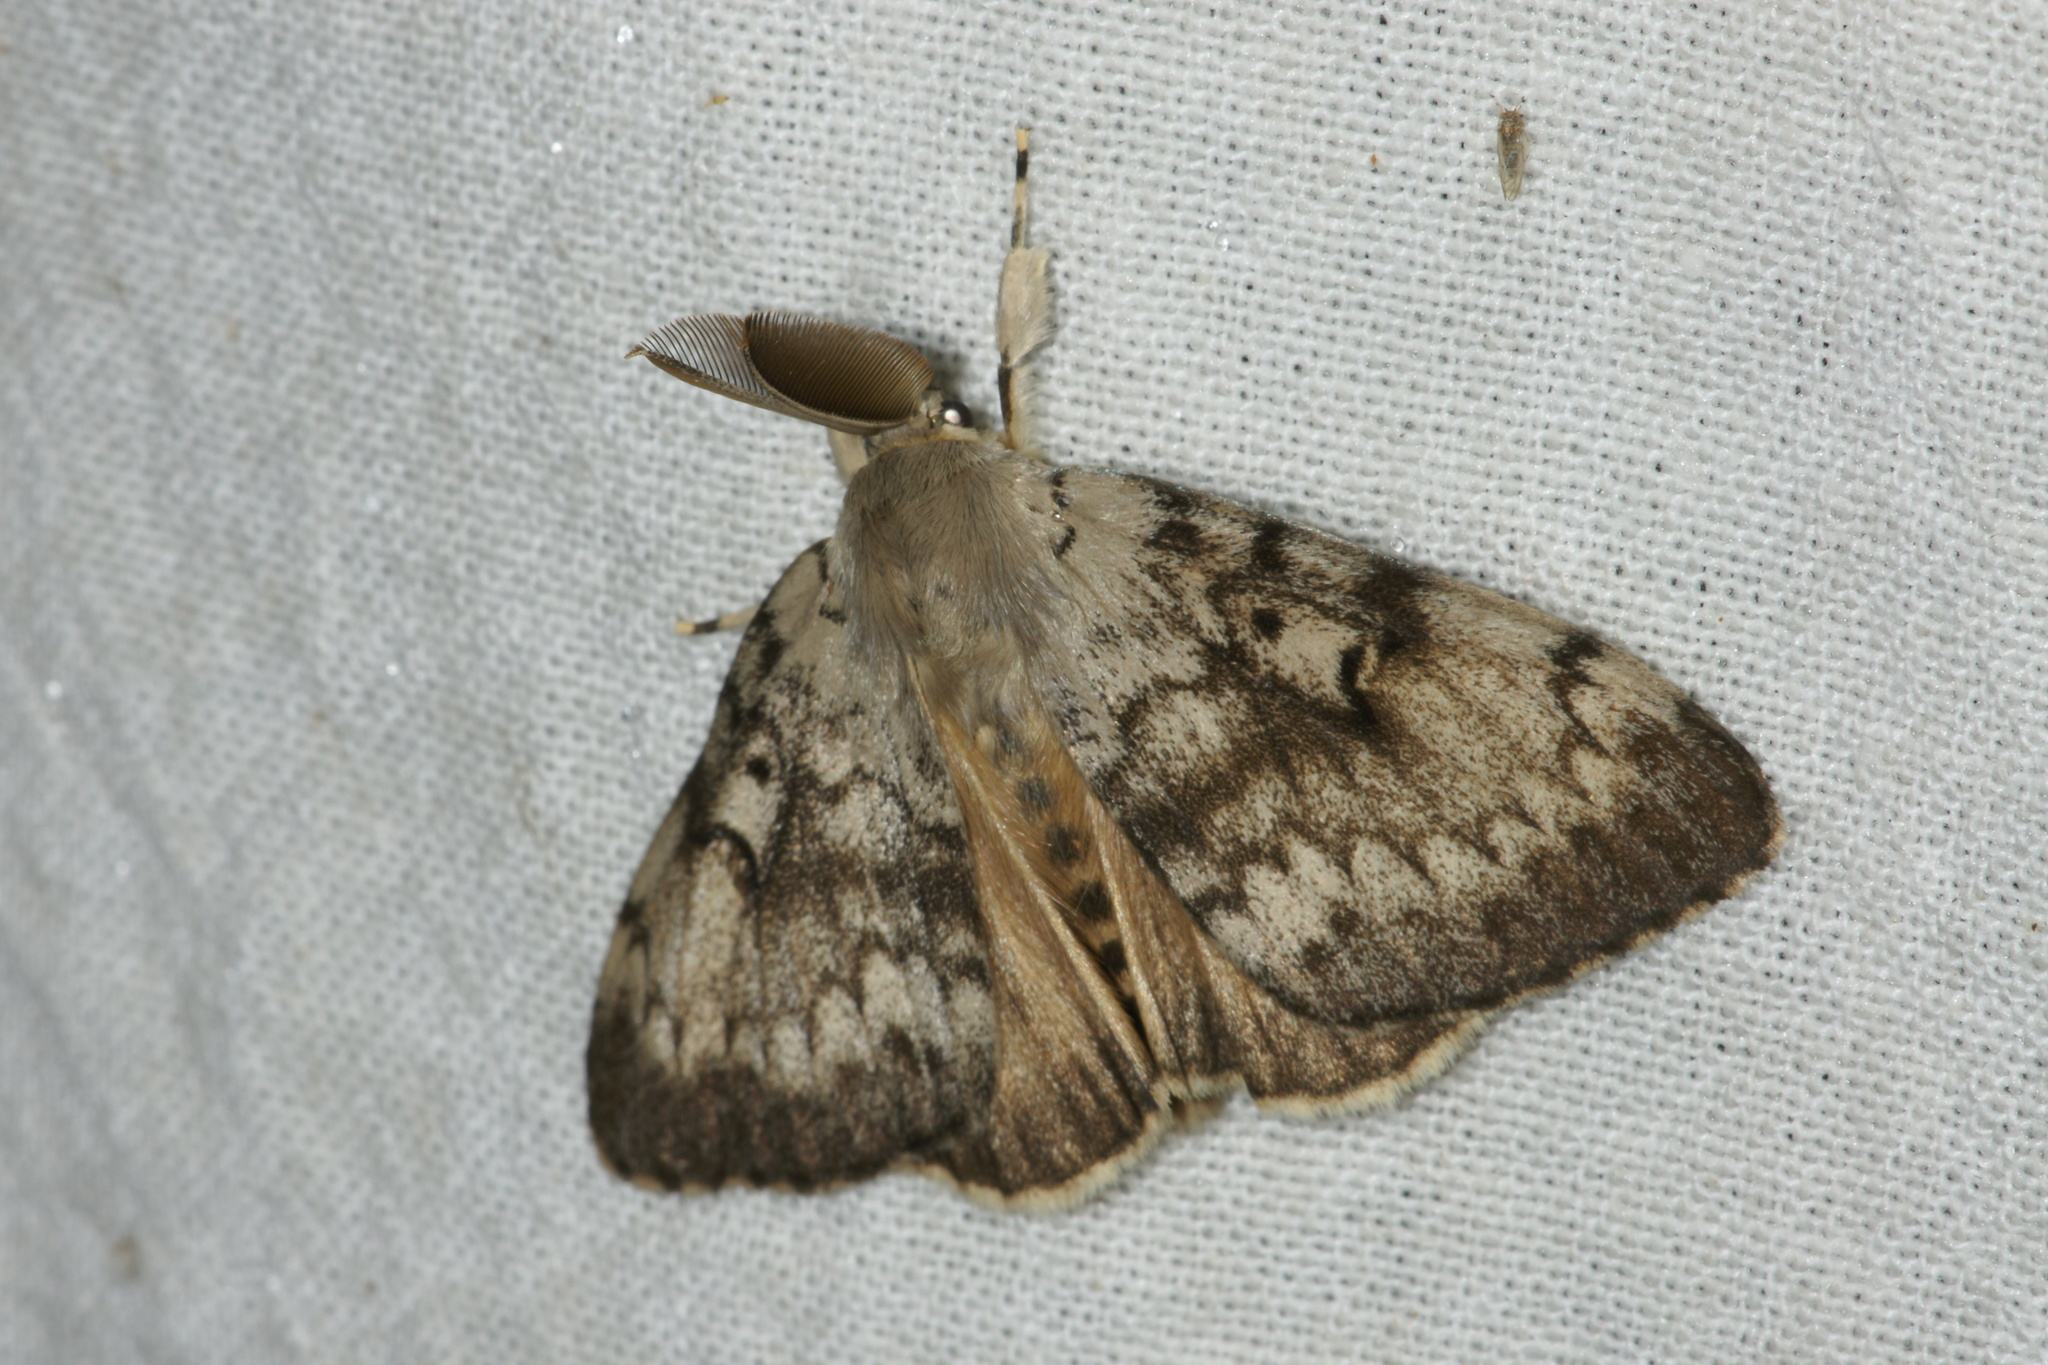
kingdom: Animalia
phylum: Arthropoda
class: Insecta
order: Lepidoptera
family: Erebidae
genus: Lymantria
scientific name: Lymantria dispar
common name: Gypsy moth
